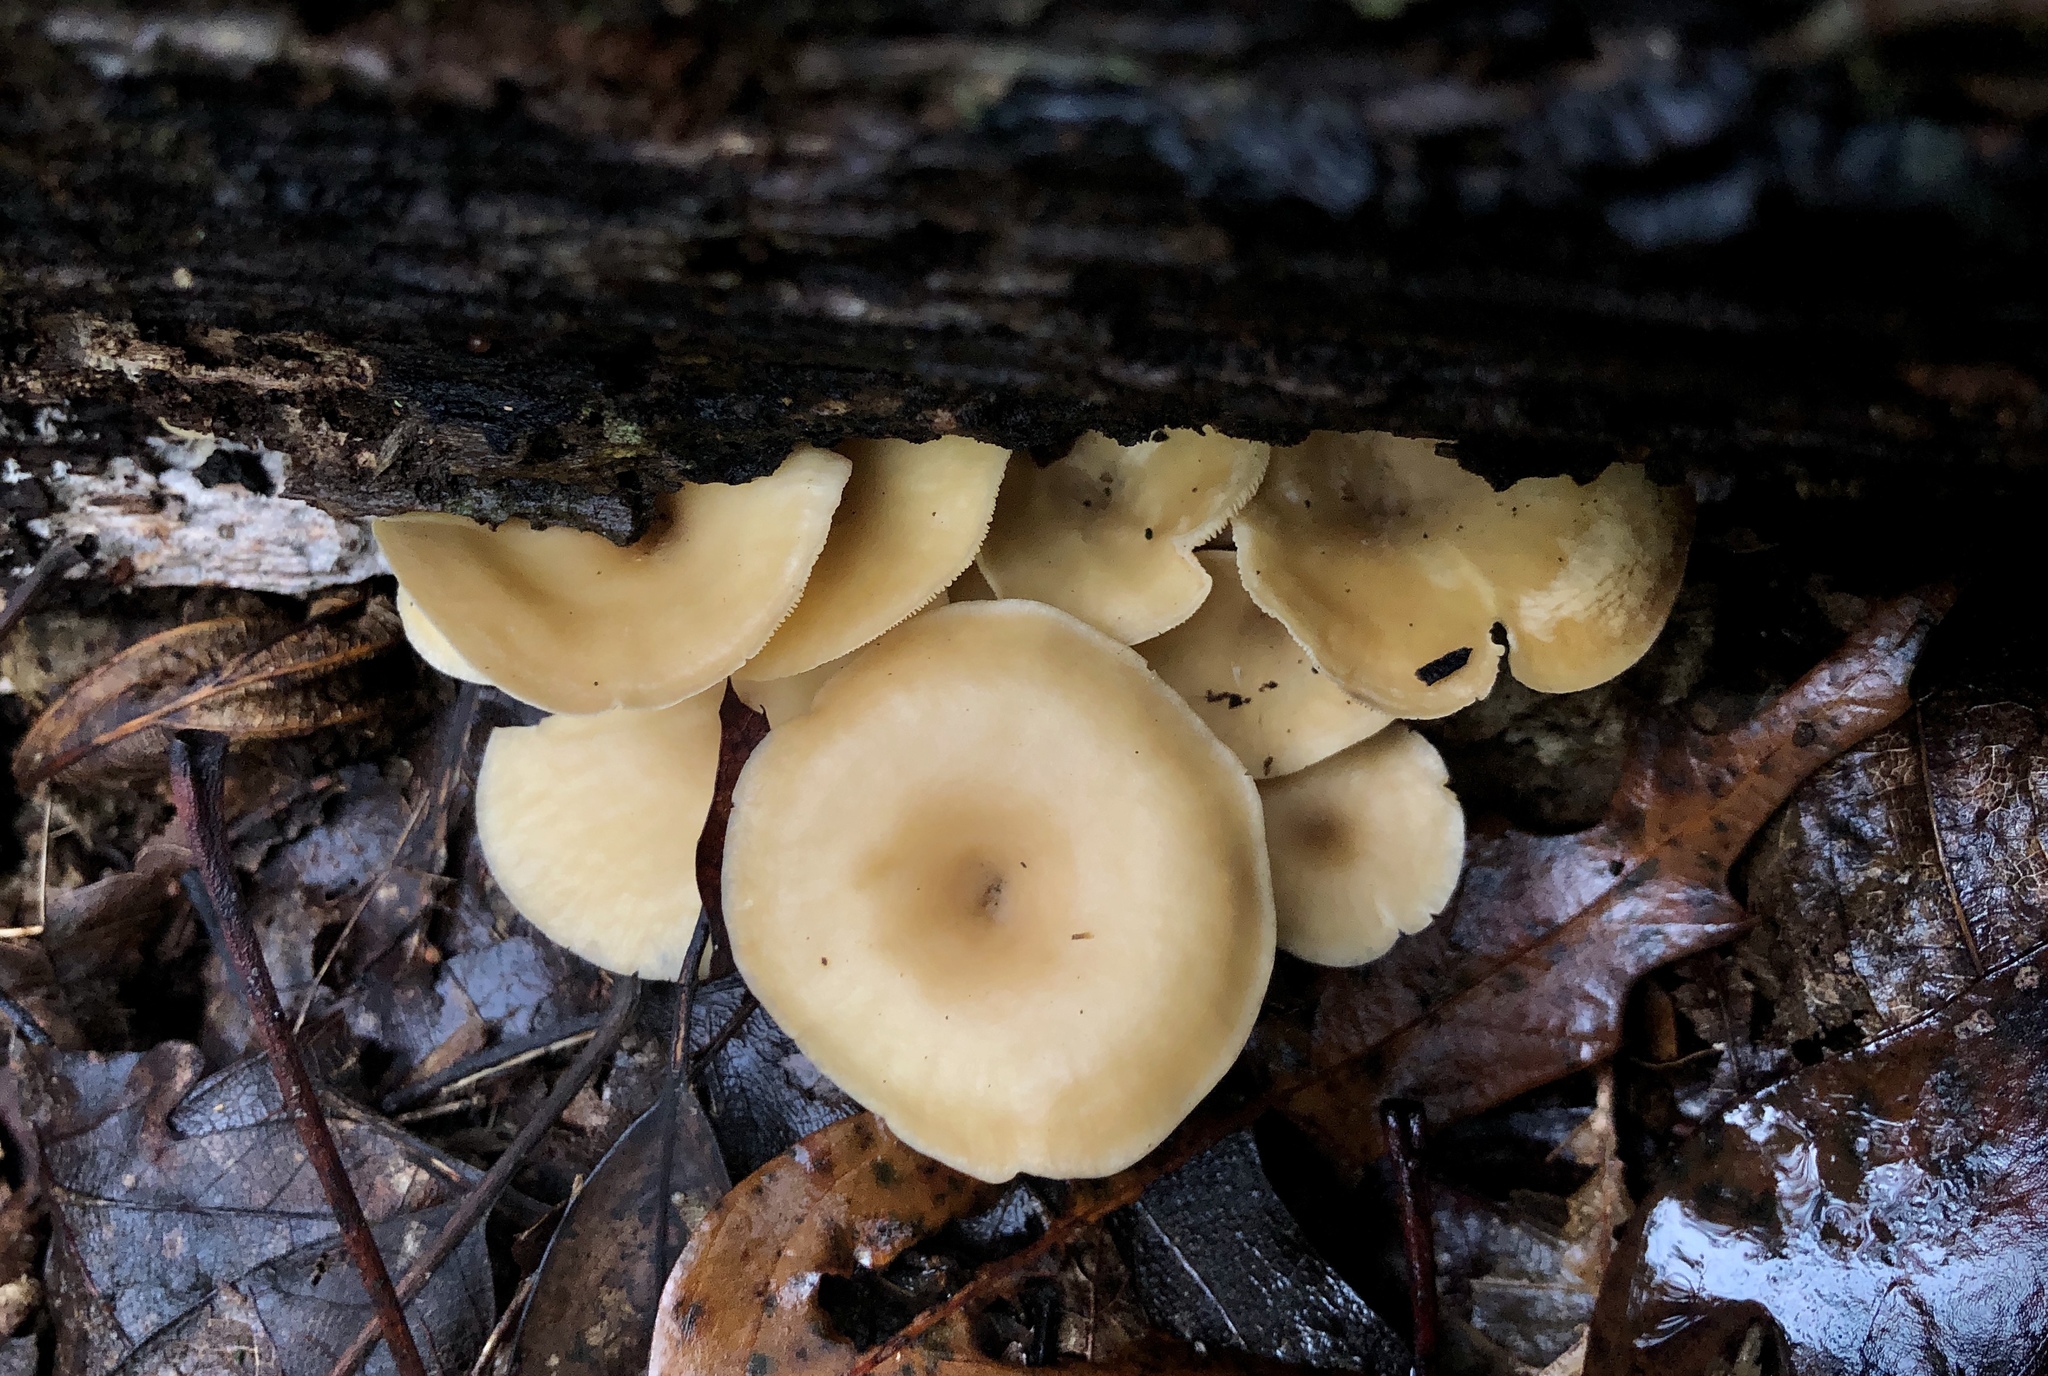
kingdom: Fungi
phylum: Basidiomycota
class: Agaricomycetes
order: Agaricales
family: Tricholomataceae
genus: Infundibulicybe
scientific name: Infundibulicybe gibba
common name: Common funnel
